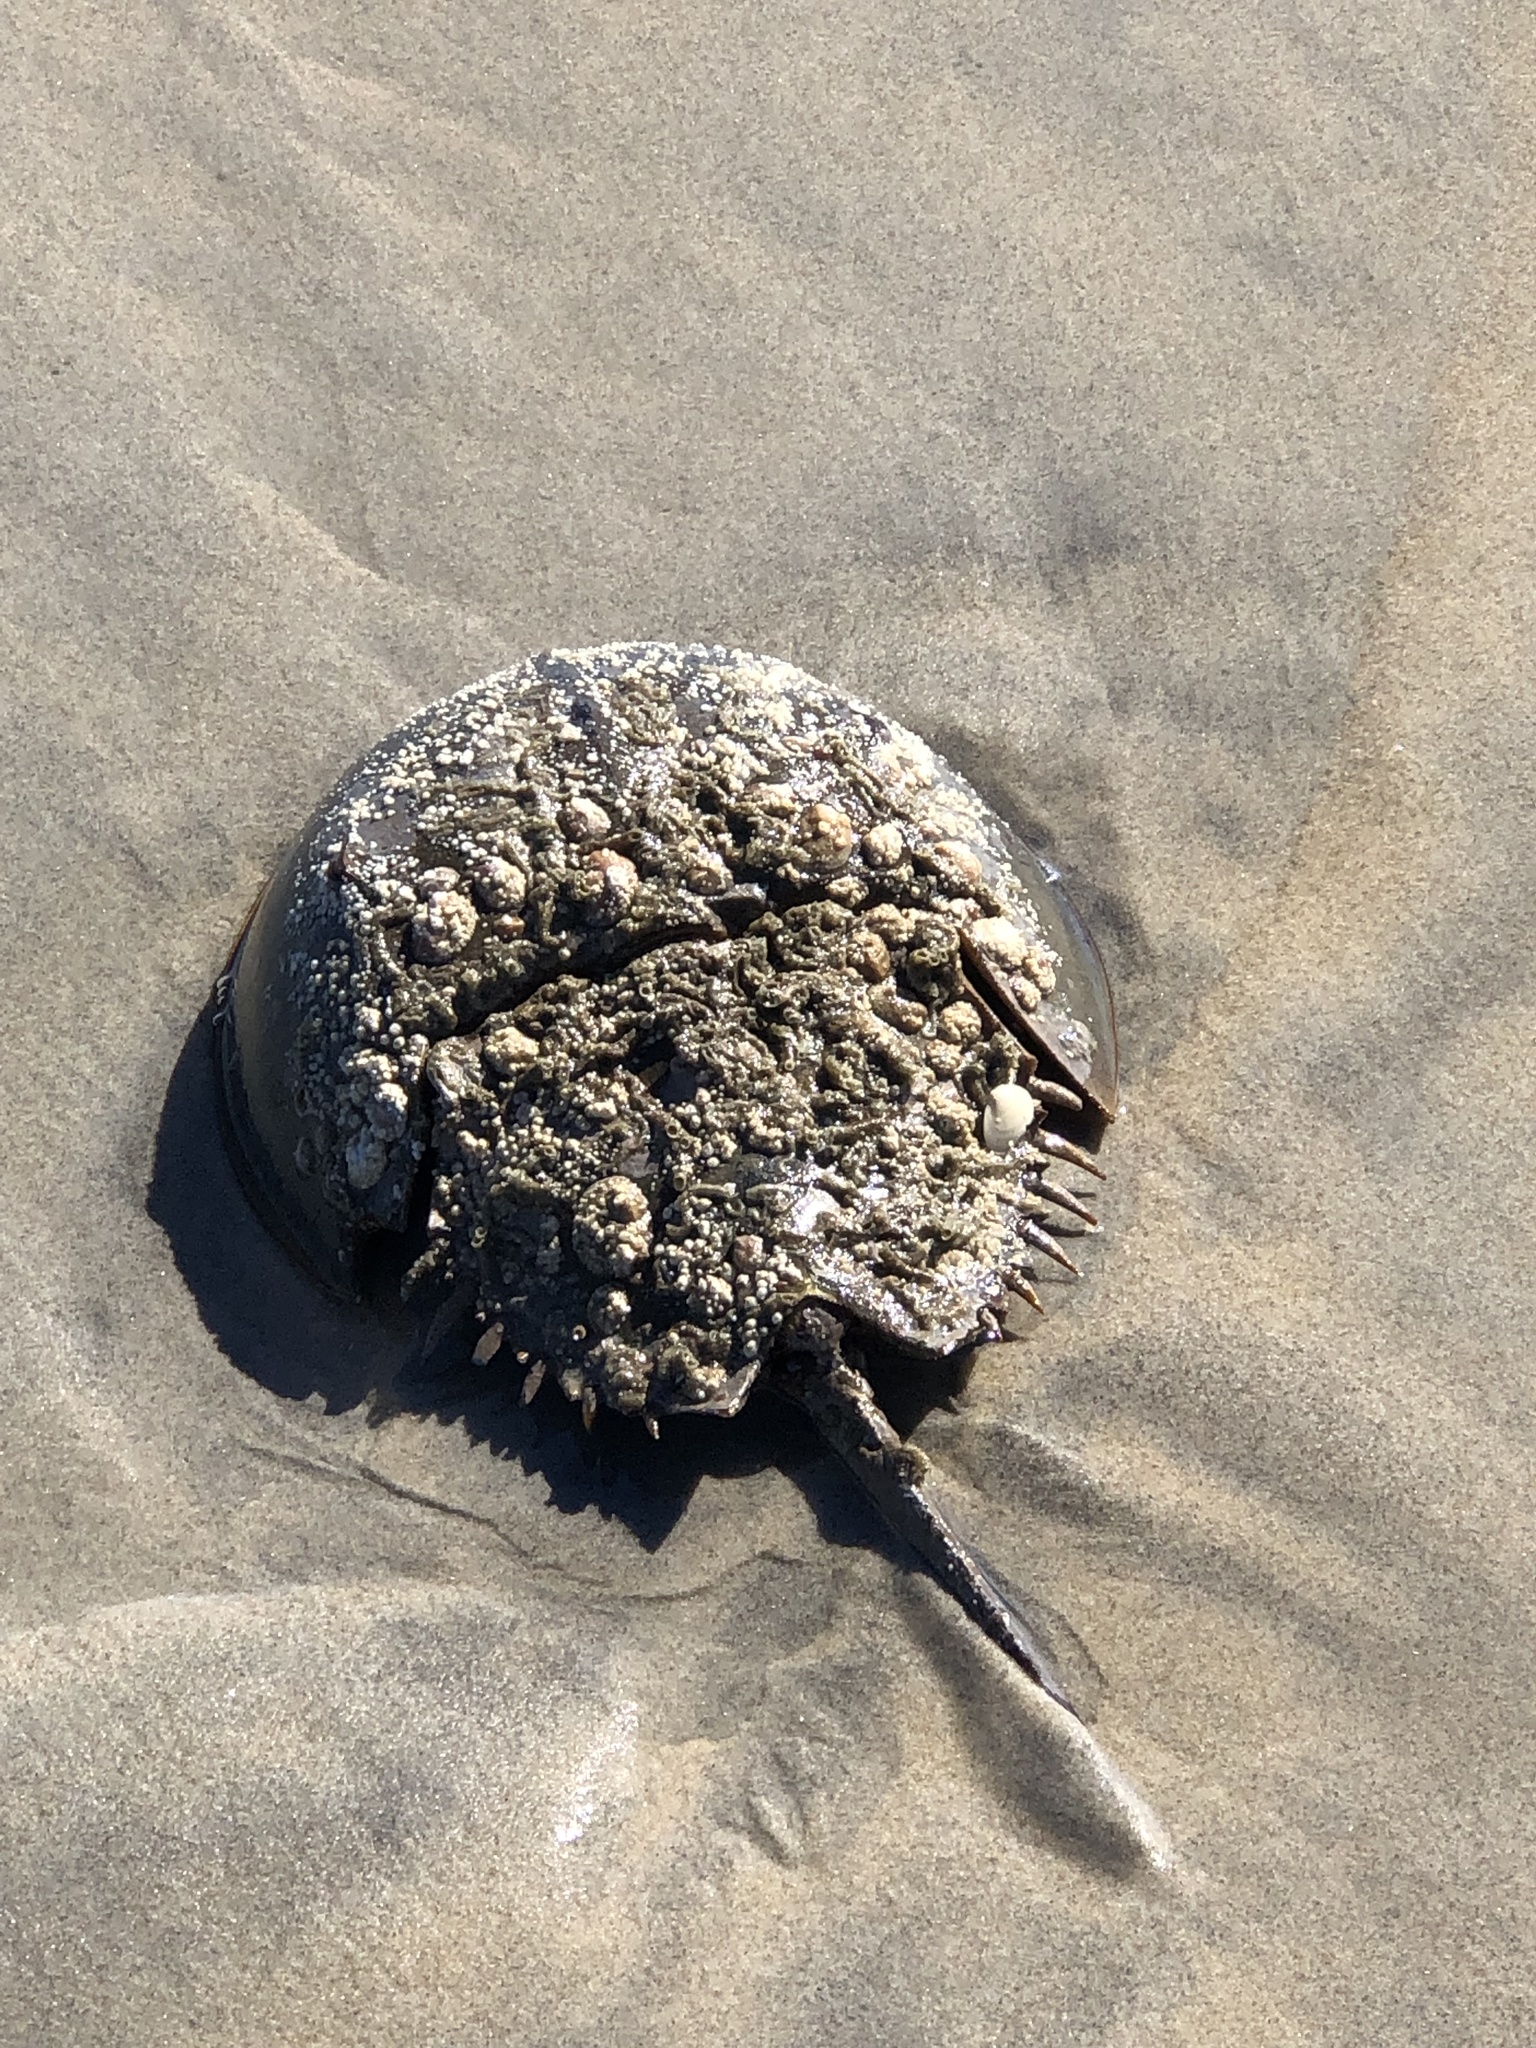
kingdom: Animalia
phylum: Arthropoda
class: Merostomata
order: Xiphosurida
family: Limulidae
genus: Limulus
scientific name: Limulus polyphemus
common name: Horseshoe crab
